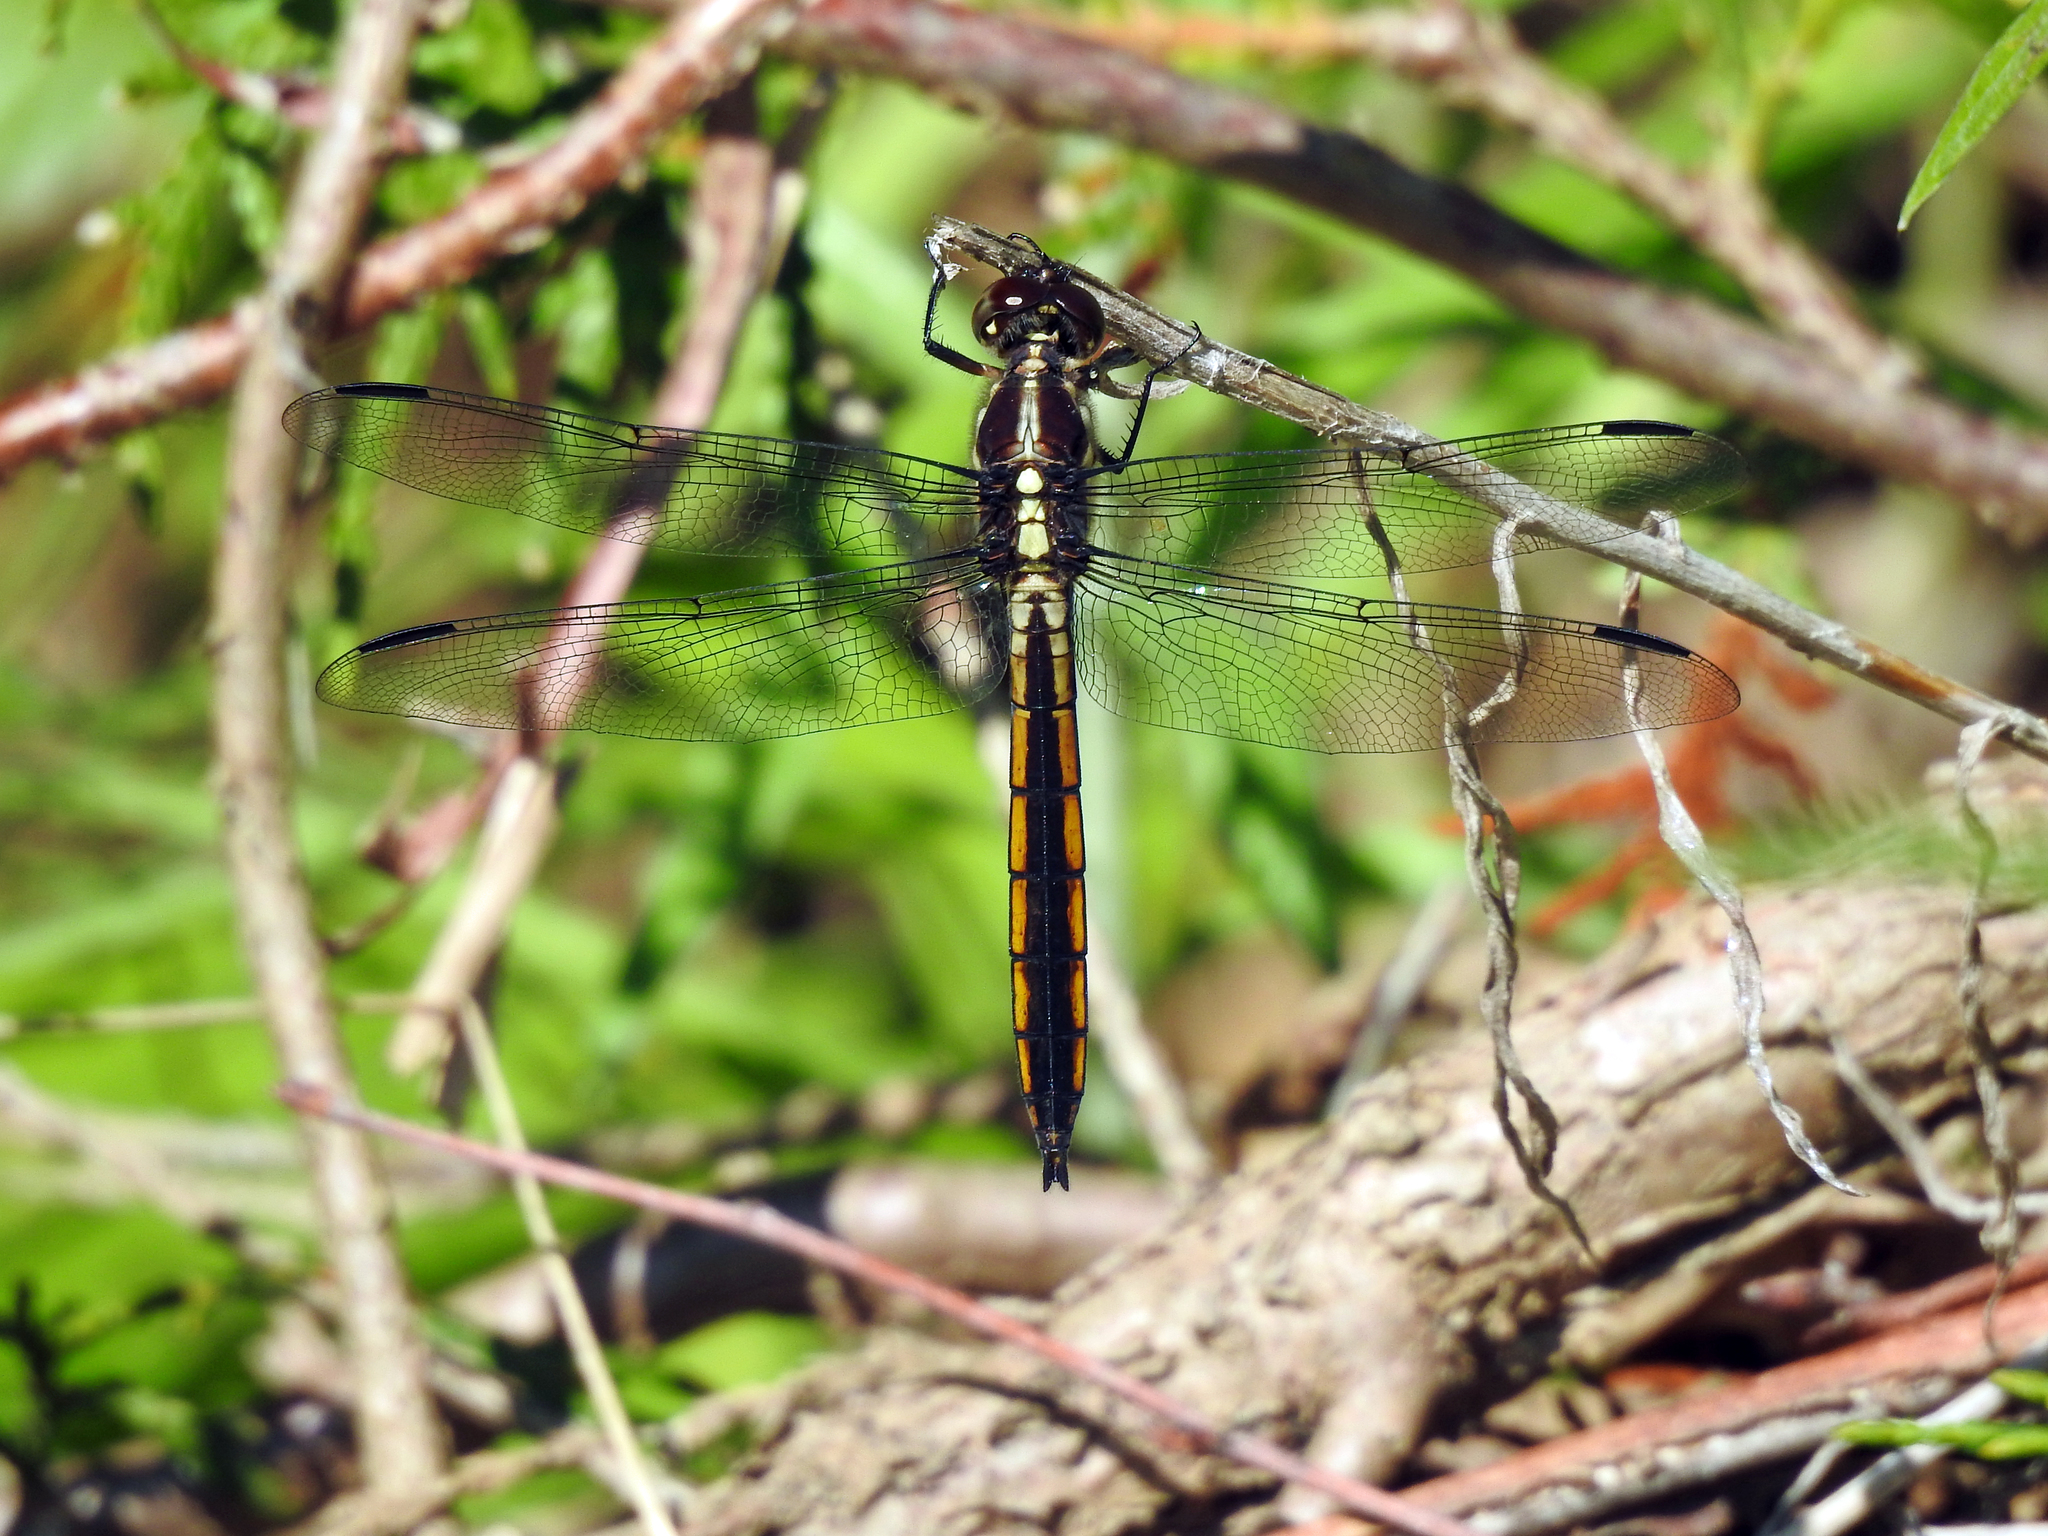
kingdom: Animalia
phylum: Arthropoda
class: Insecta
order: Odonata
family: Libellulidae
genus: Libellula
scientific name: Libellula incesta
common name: Slaty skimmer
